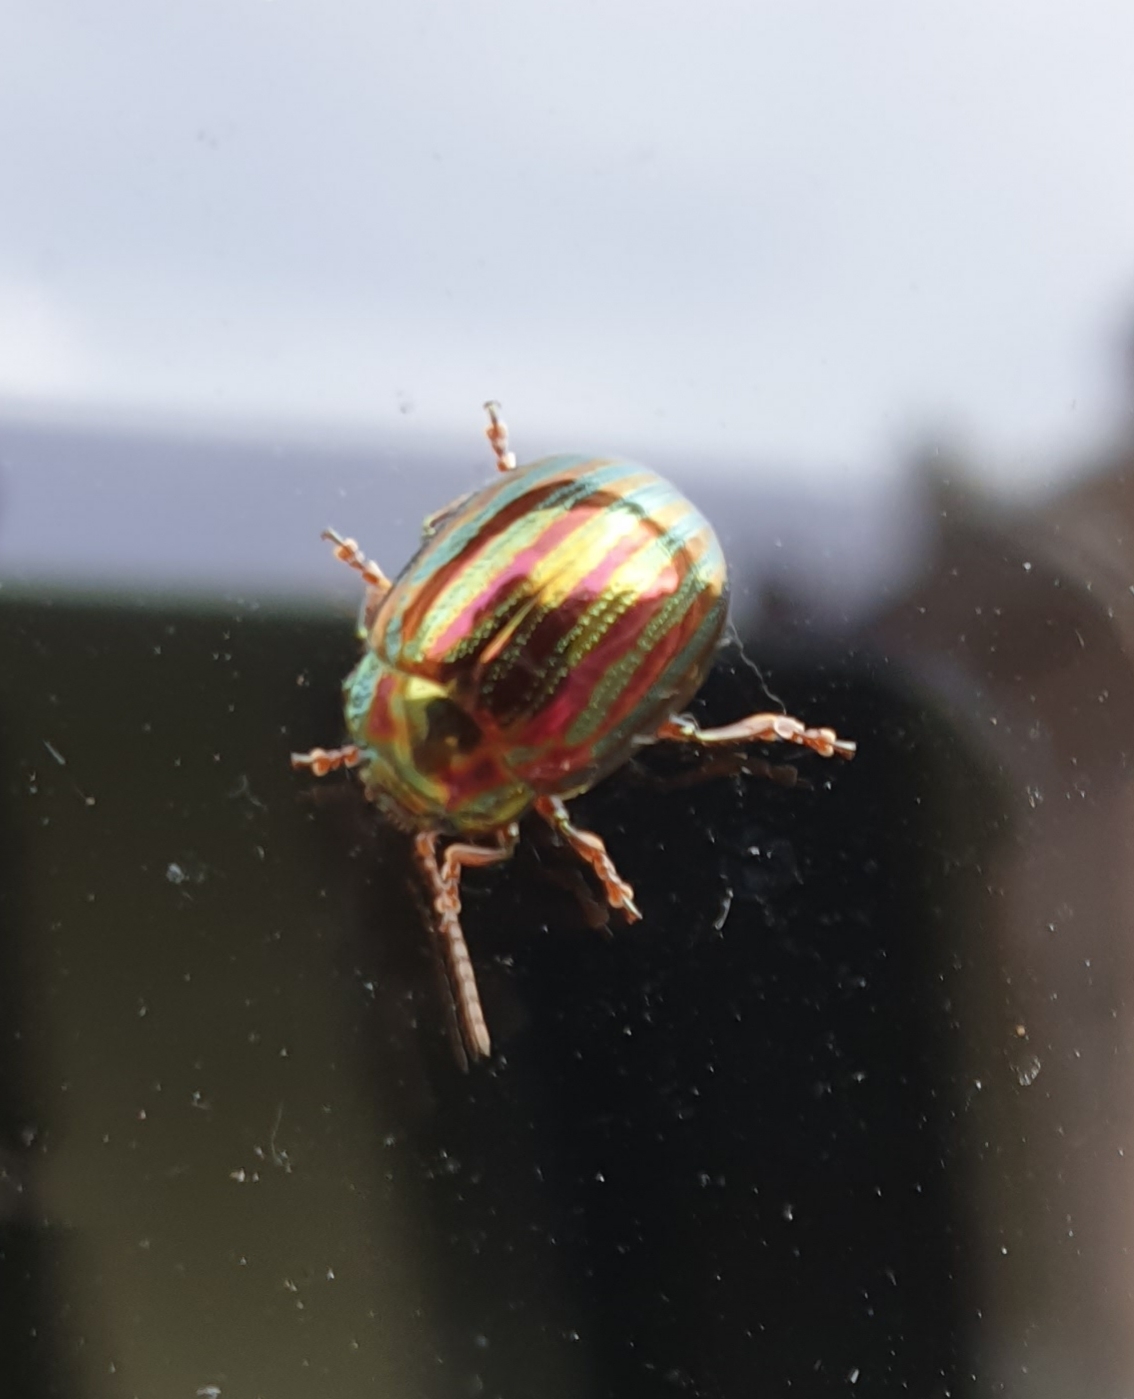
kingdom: Animalia
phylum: Arthropoda
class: Insecta
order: Coleoptera
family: Chrysomelidae
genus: Chrysolina
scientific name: Chrysolina americana
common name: Rosemary beetle
